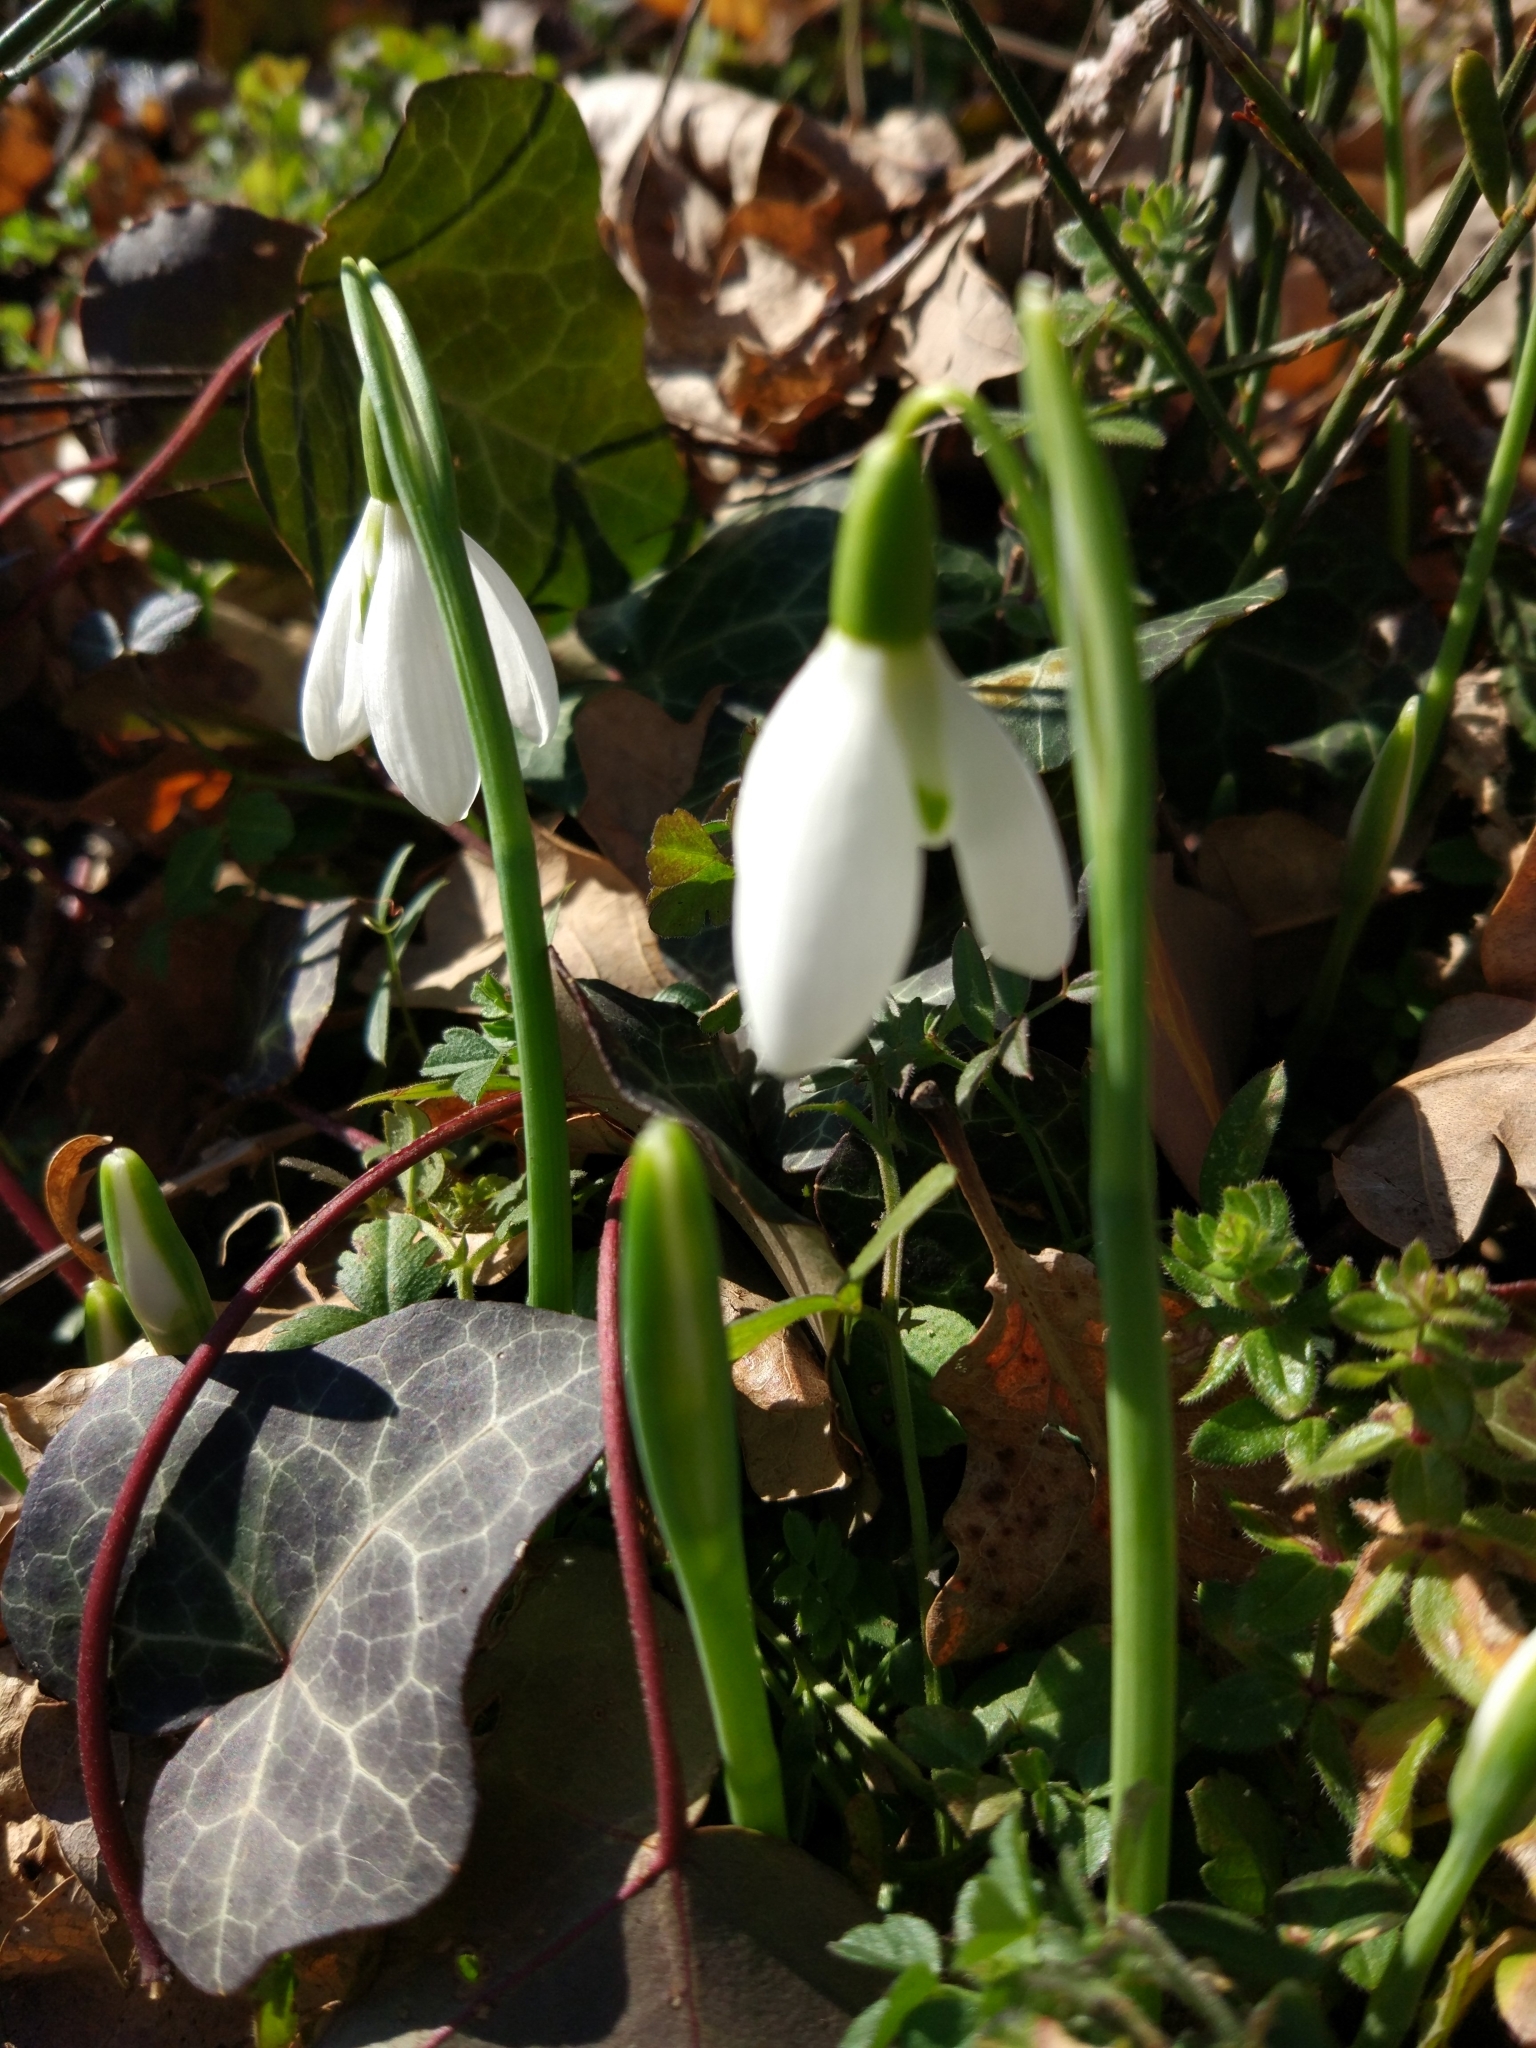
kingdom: Plantae
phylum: Tracheophyta
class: Liliopsida
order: Asparagales
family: Amaryllidaceae
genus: Galanthus
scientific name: Galanthus nivalis
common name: Snowdrop
